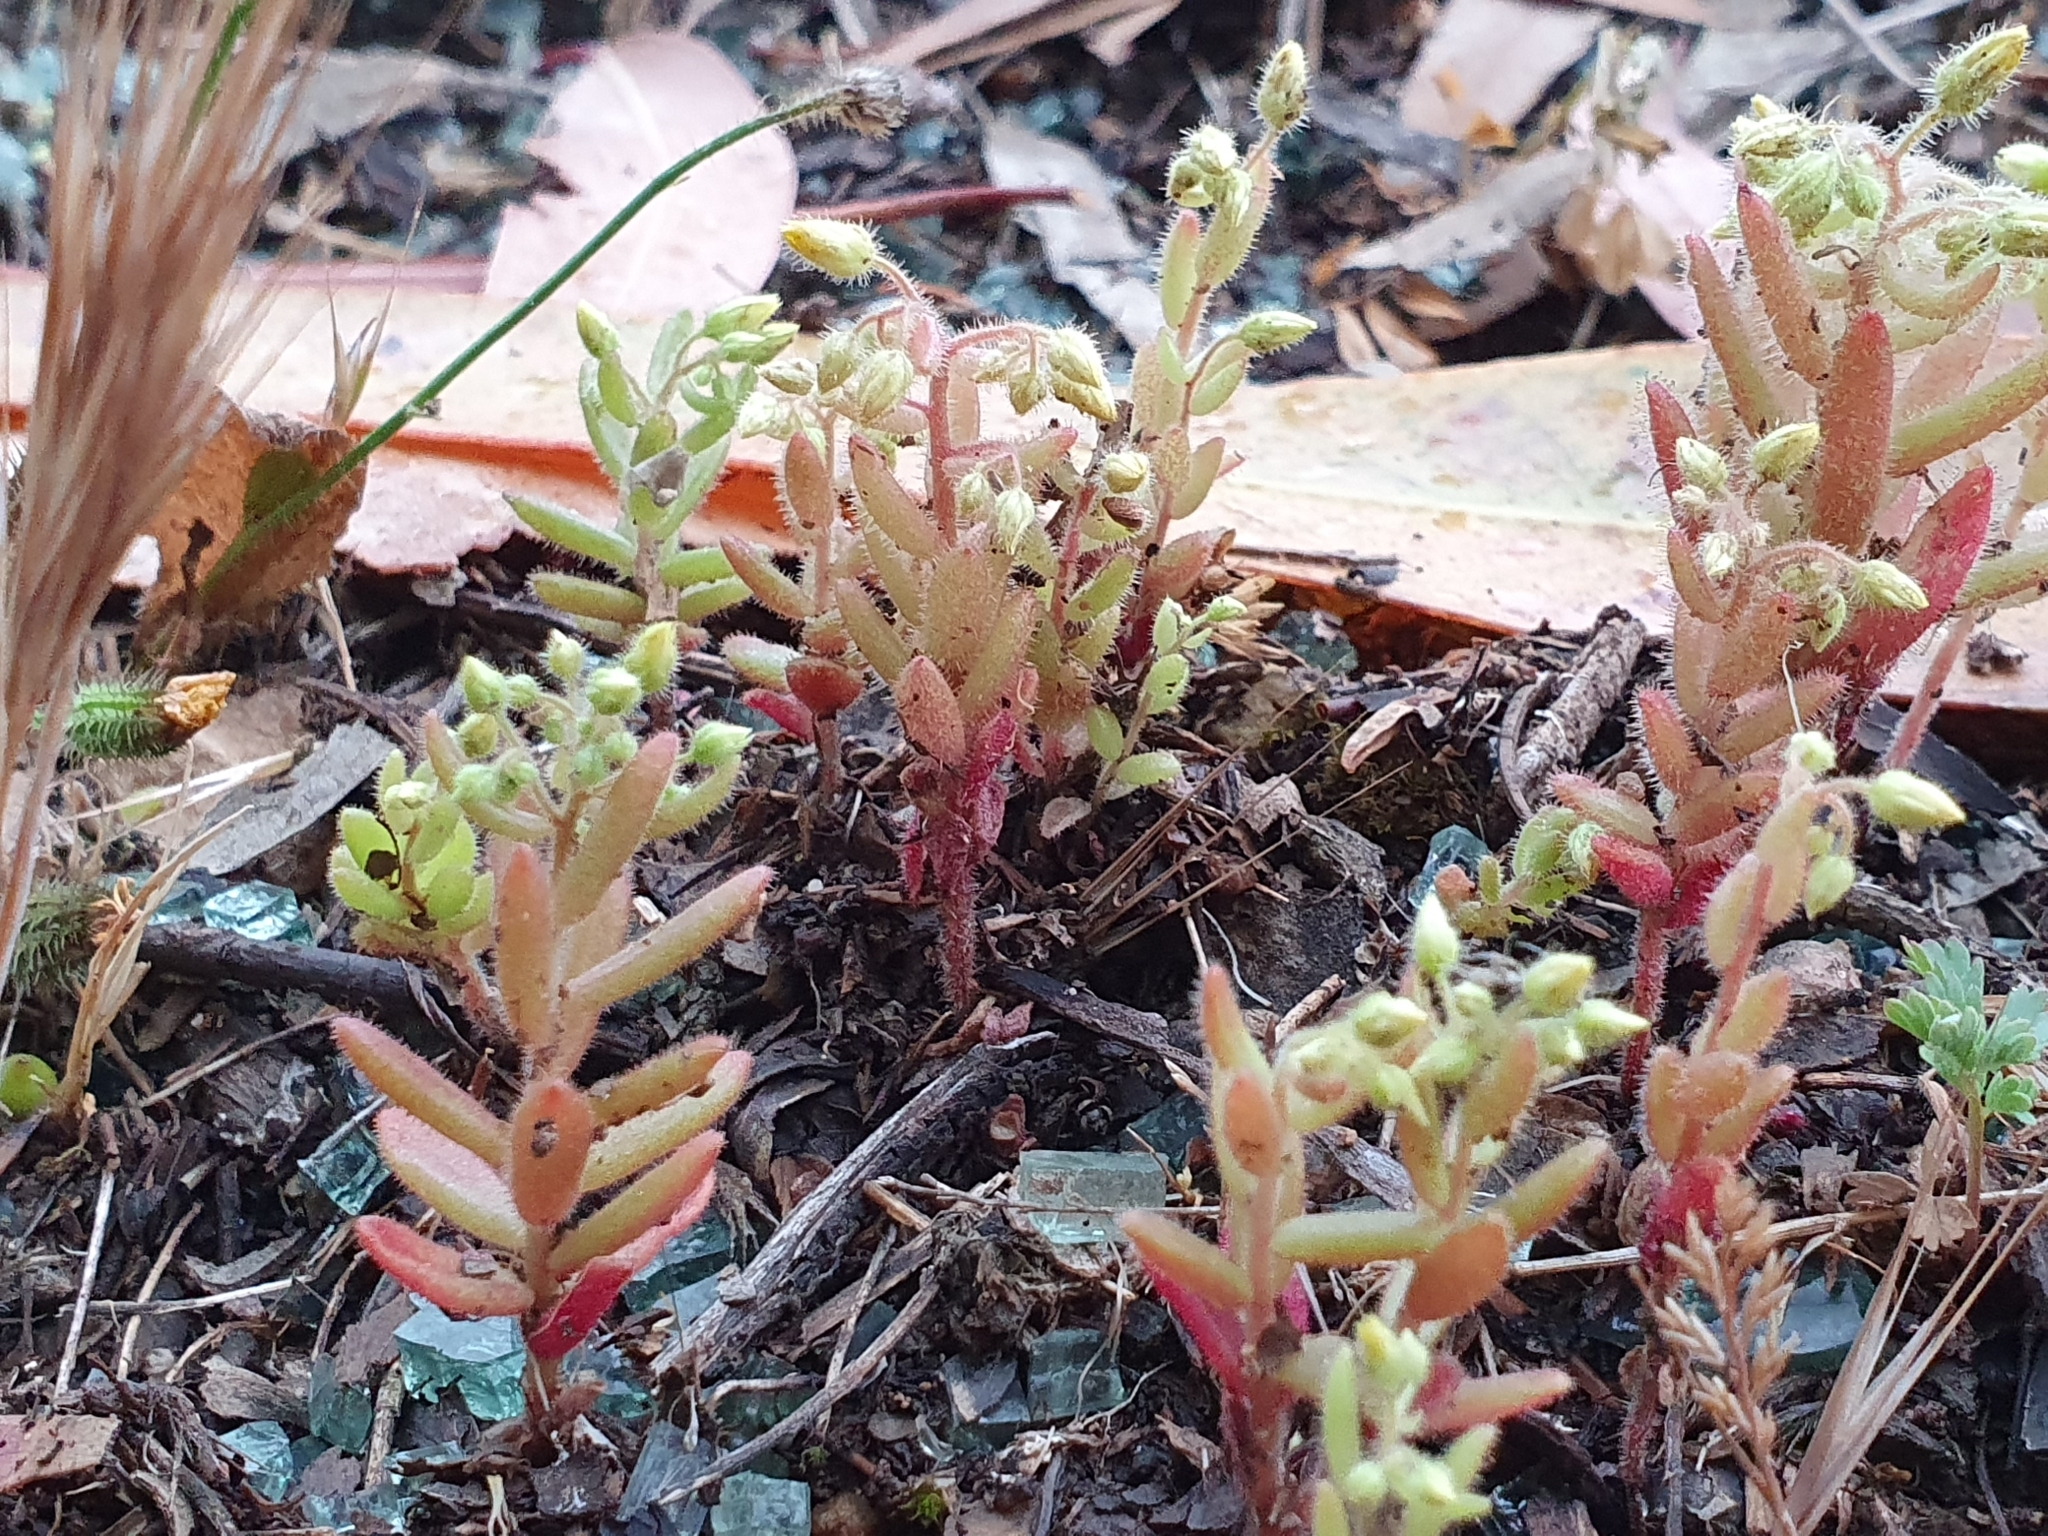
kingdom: Plantae
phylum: Tracheophyta
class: Magnoliopsida
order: Saxifragales
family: Crassulaceae
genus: Sedum
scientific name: Sedum pubescens
